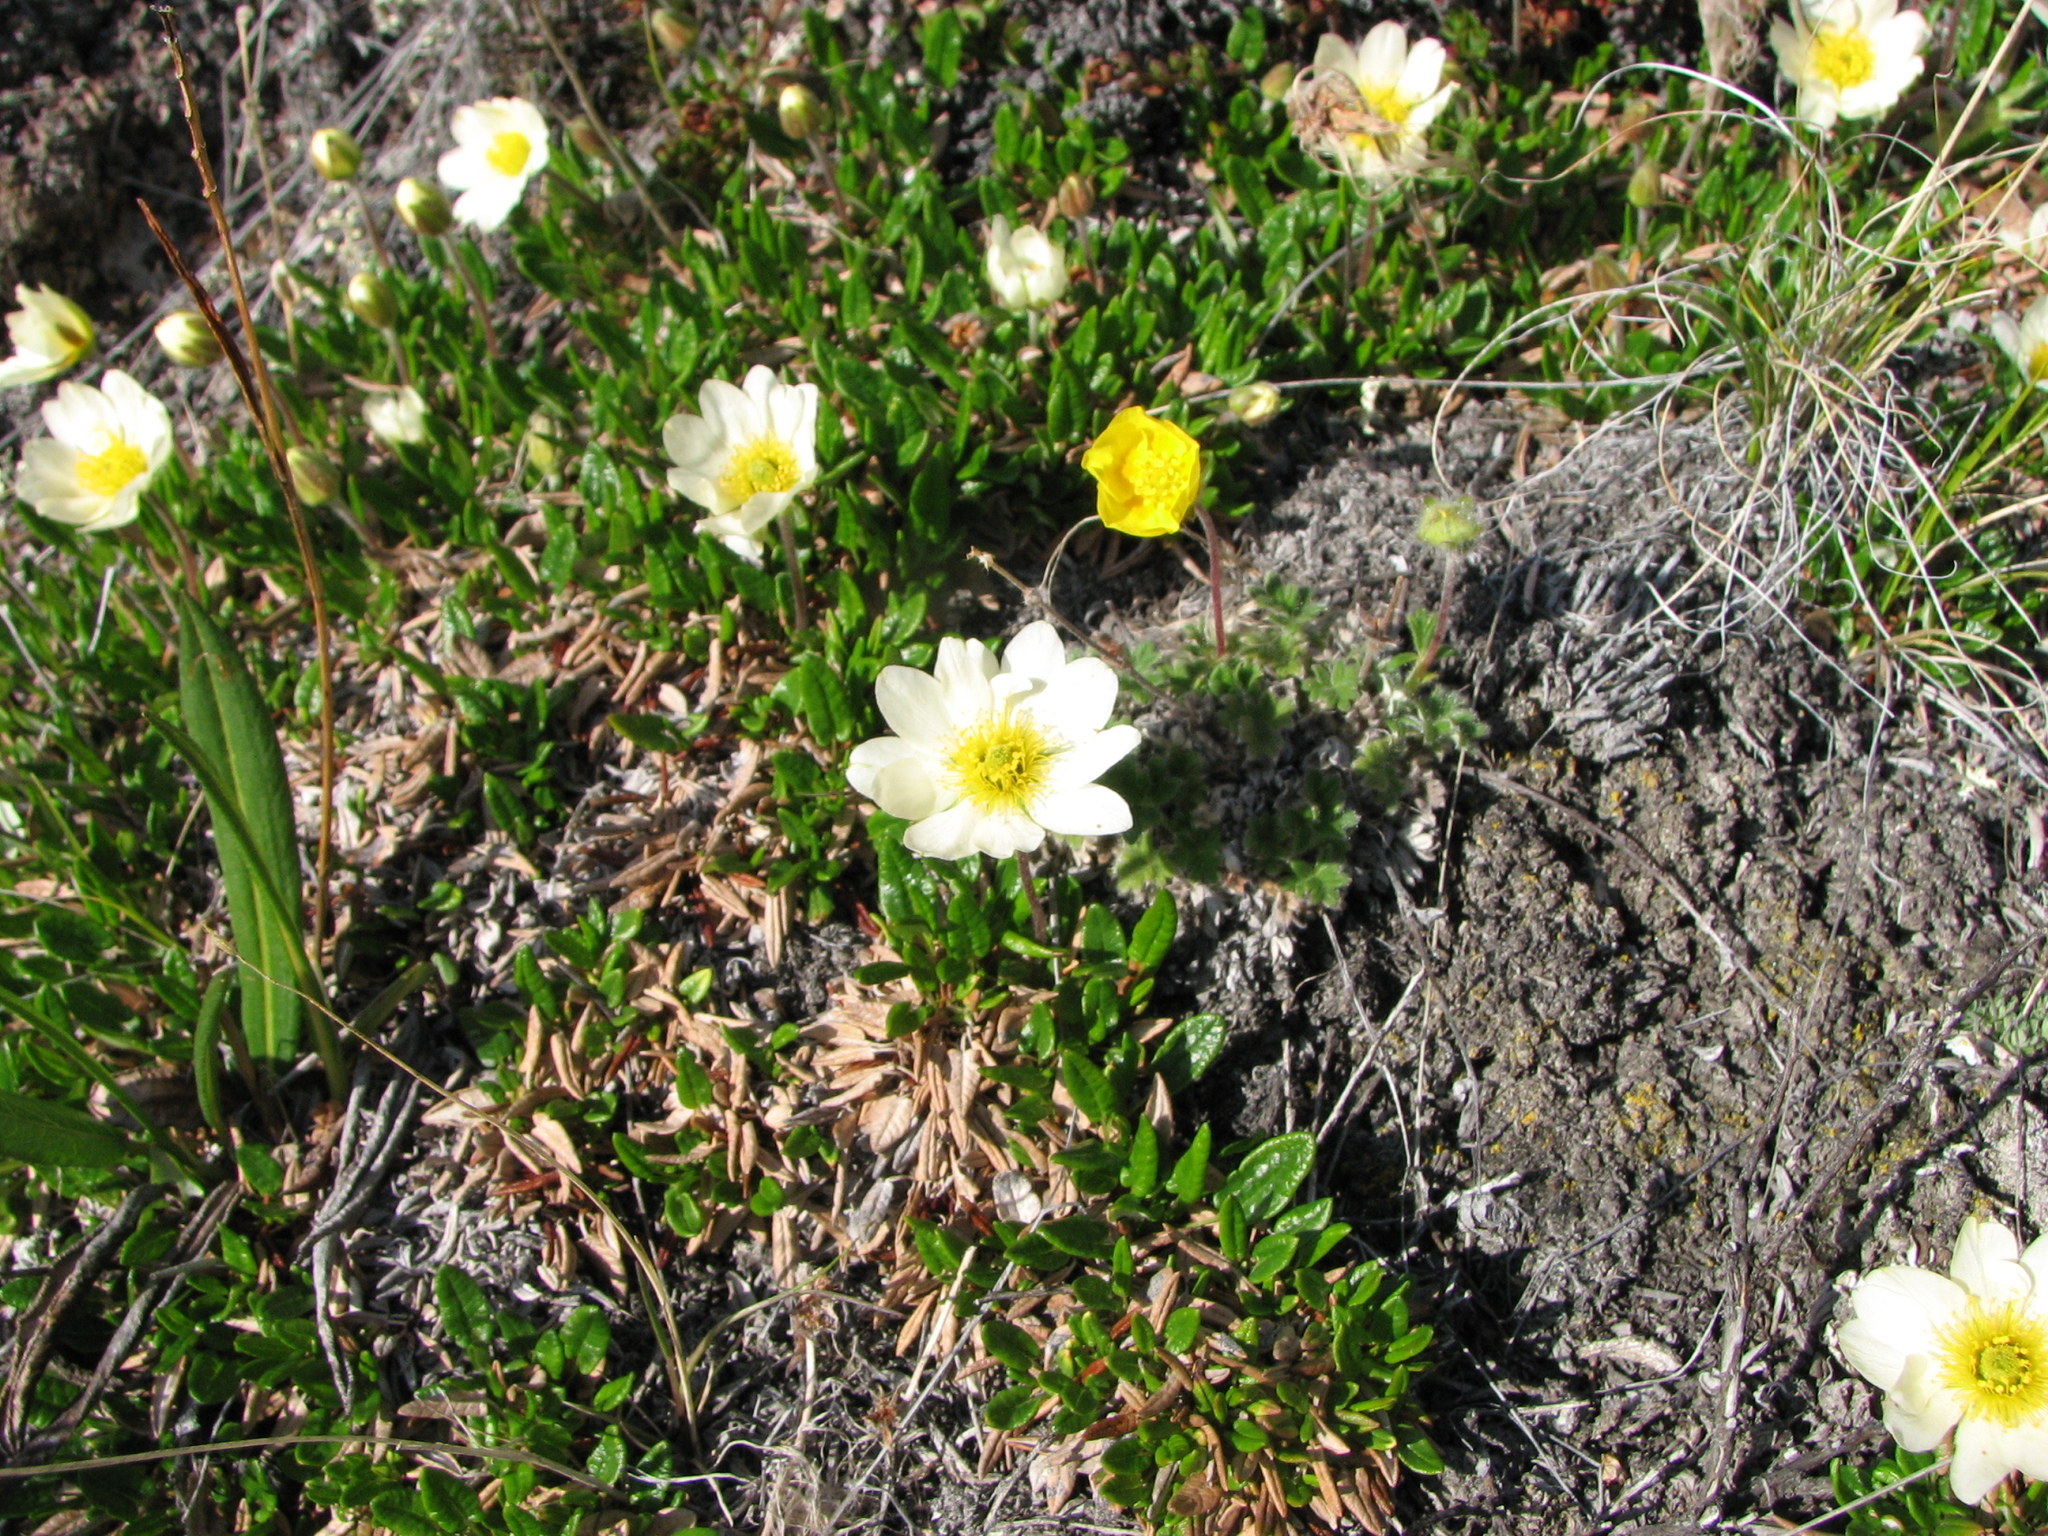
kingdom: Plantae
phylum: Tracheophyta
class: Magnoliopsida
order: Rosales
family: Rosaceae
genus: Dryas
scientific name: Dryas integrifolia
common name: Entire-leaved mountain avens
